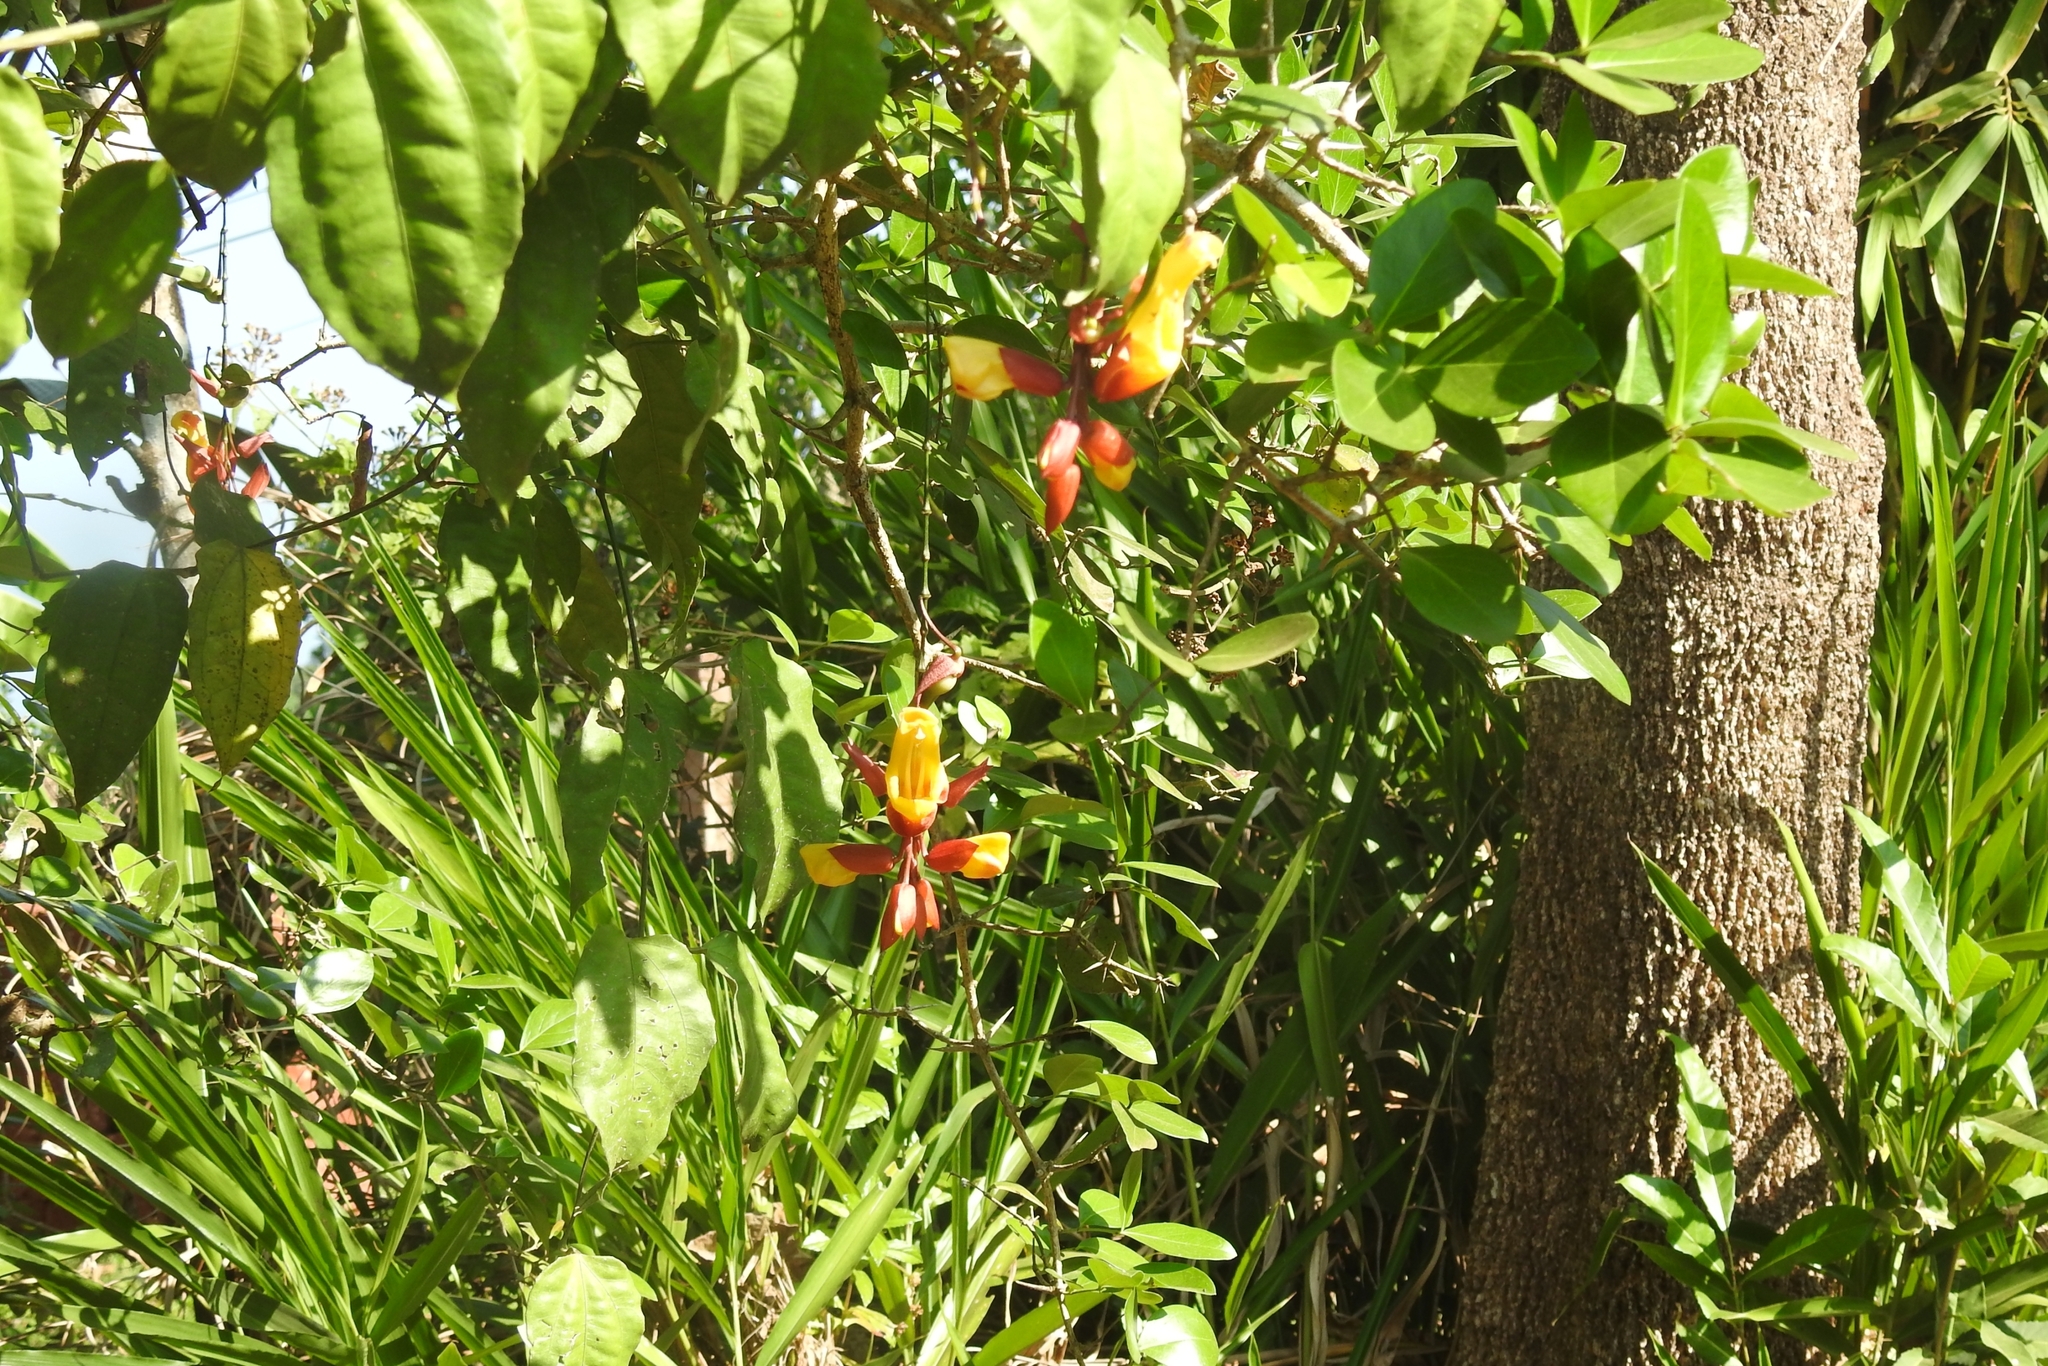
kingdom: Plantae
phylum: Tracheophyta
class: Magnoliopsida
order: Lamiales
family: Acanthaceae
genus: Thunbergia
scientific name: Thunbergia mysorensis
